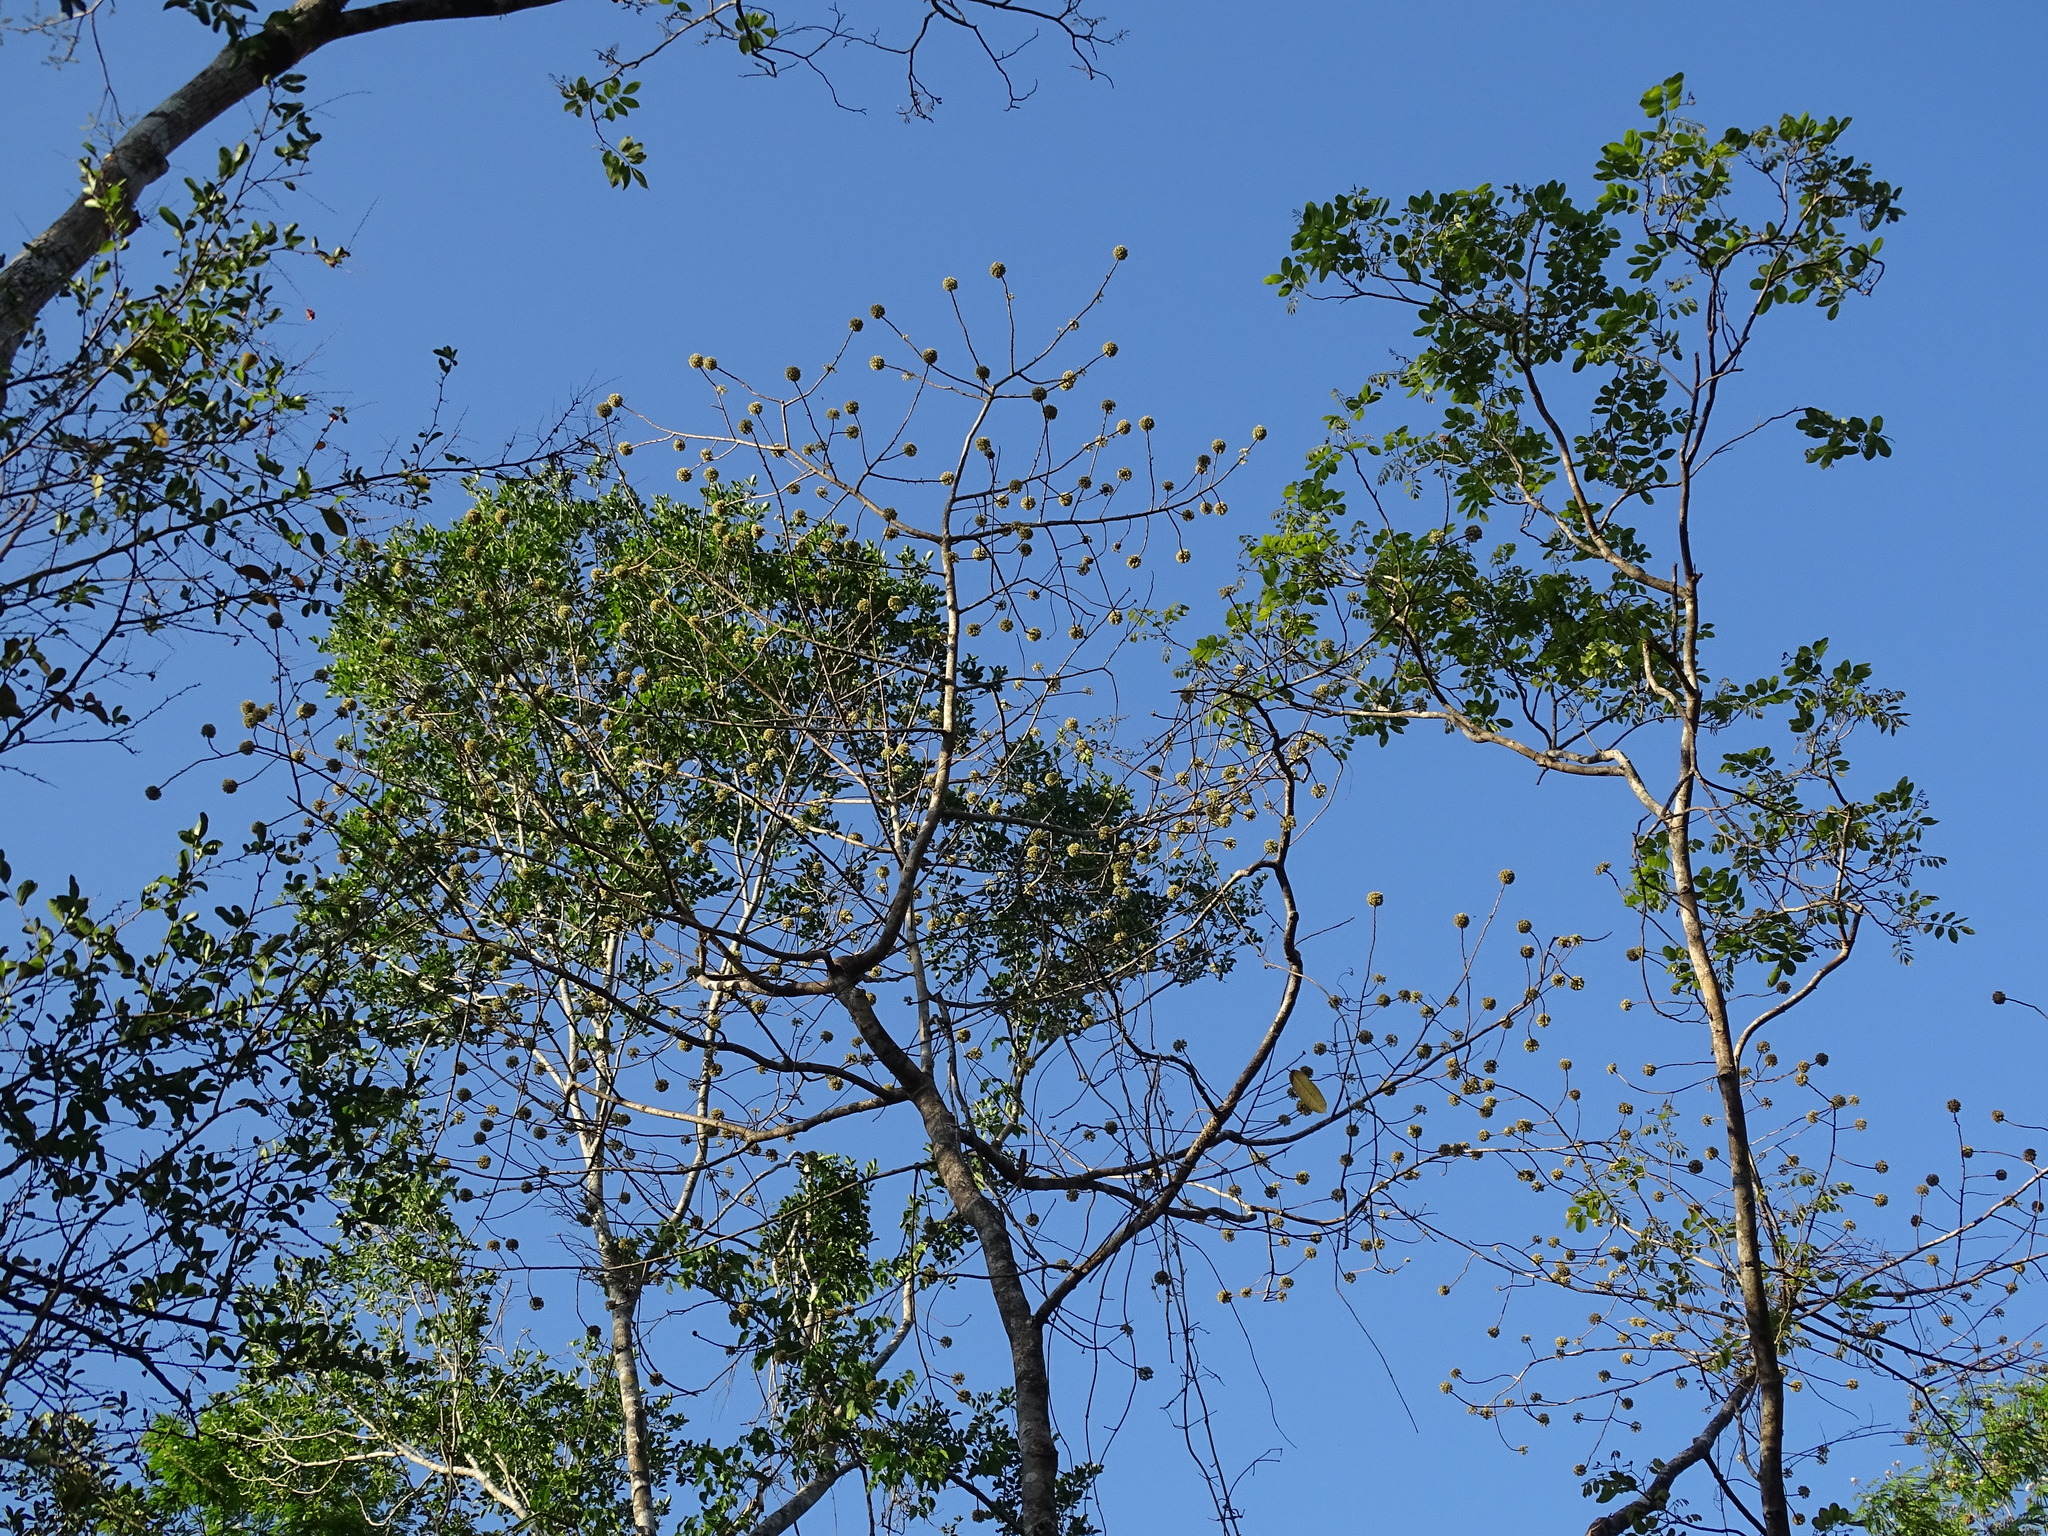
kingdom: Plantae
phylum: Tracheophyta
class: Magnoliopsida
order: Malpighiales
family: Salicaceae
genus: Casearia
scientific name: Casearia icosandra
